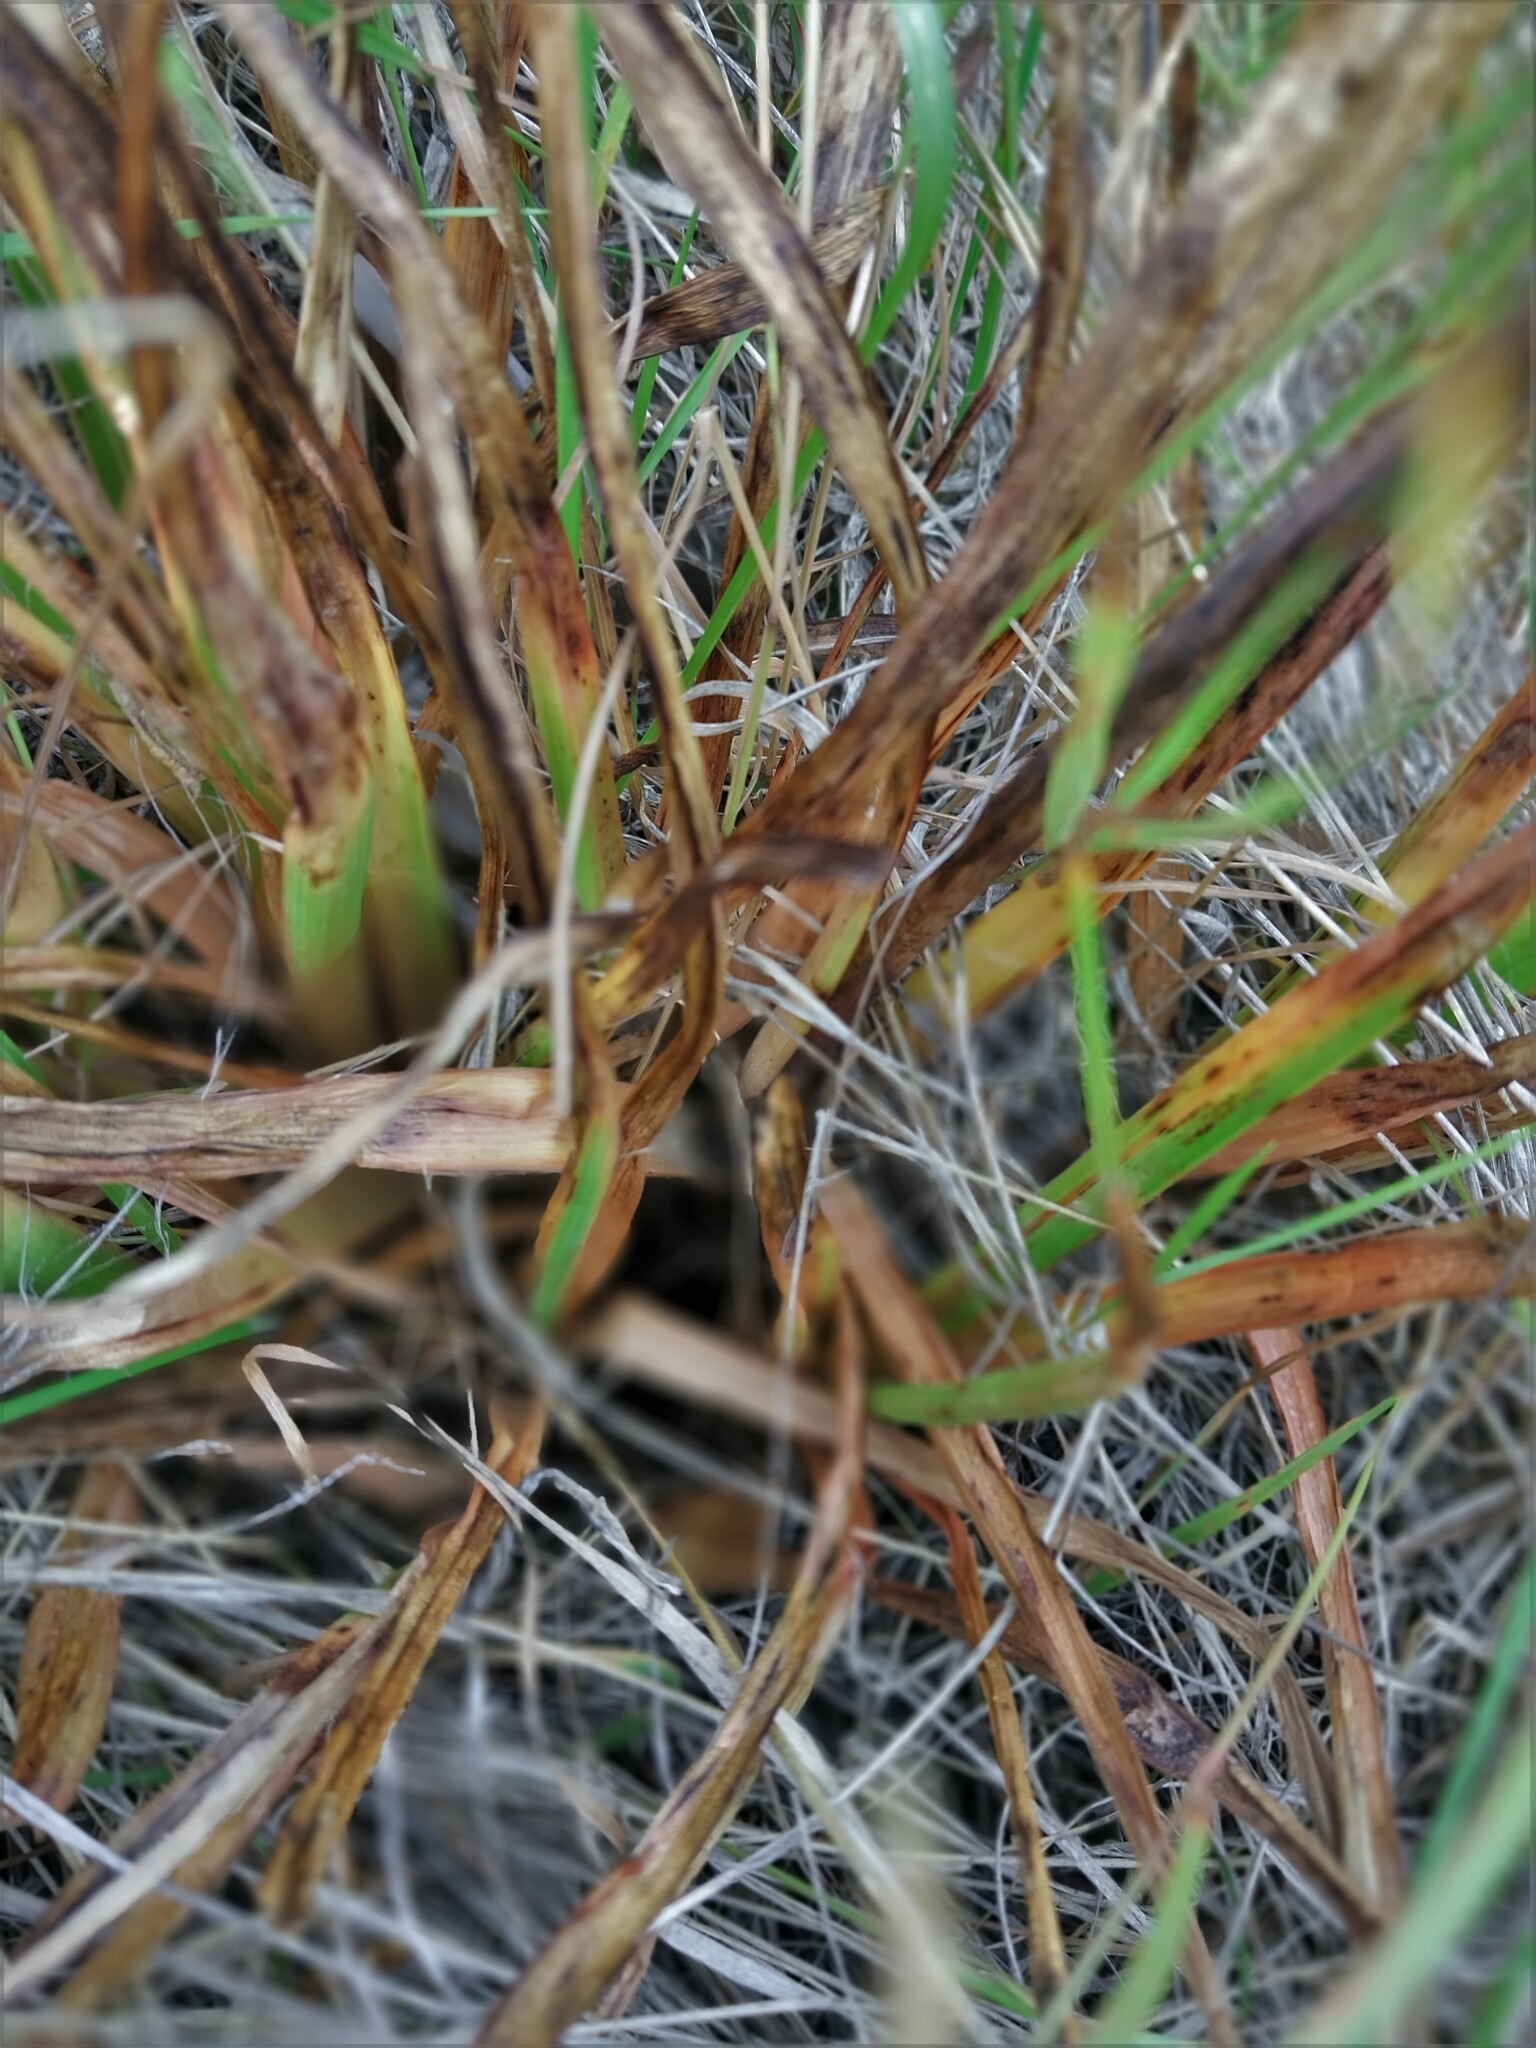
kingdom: Plantae
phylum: Tracheophyta
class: Liliopsida
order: Asparagales
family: Asphodelaceae
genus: Bulbinella
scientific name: Bulbinella angustifolia
